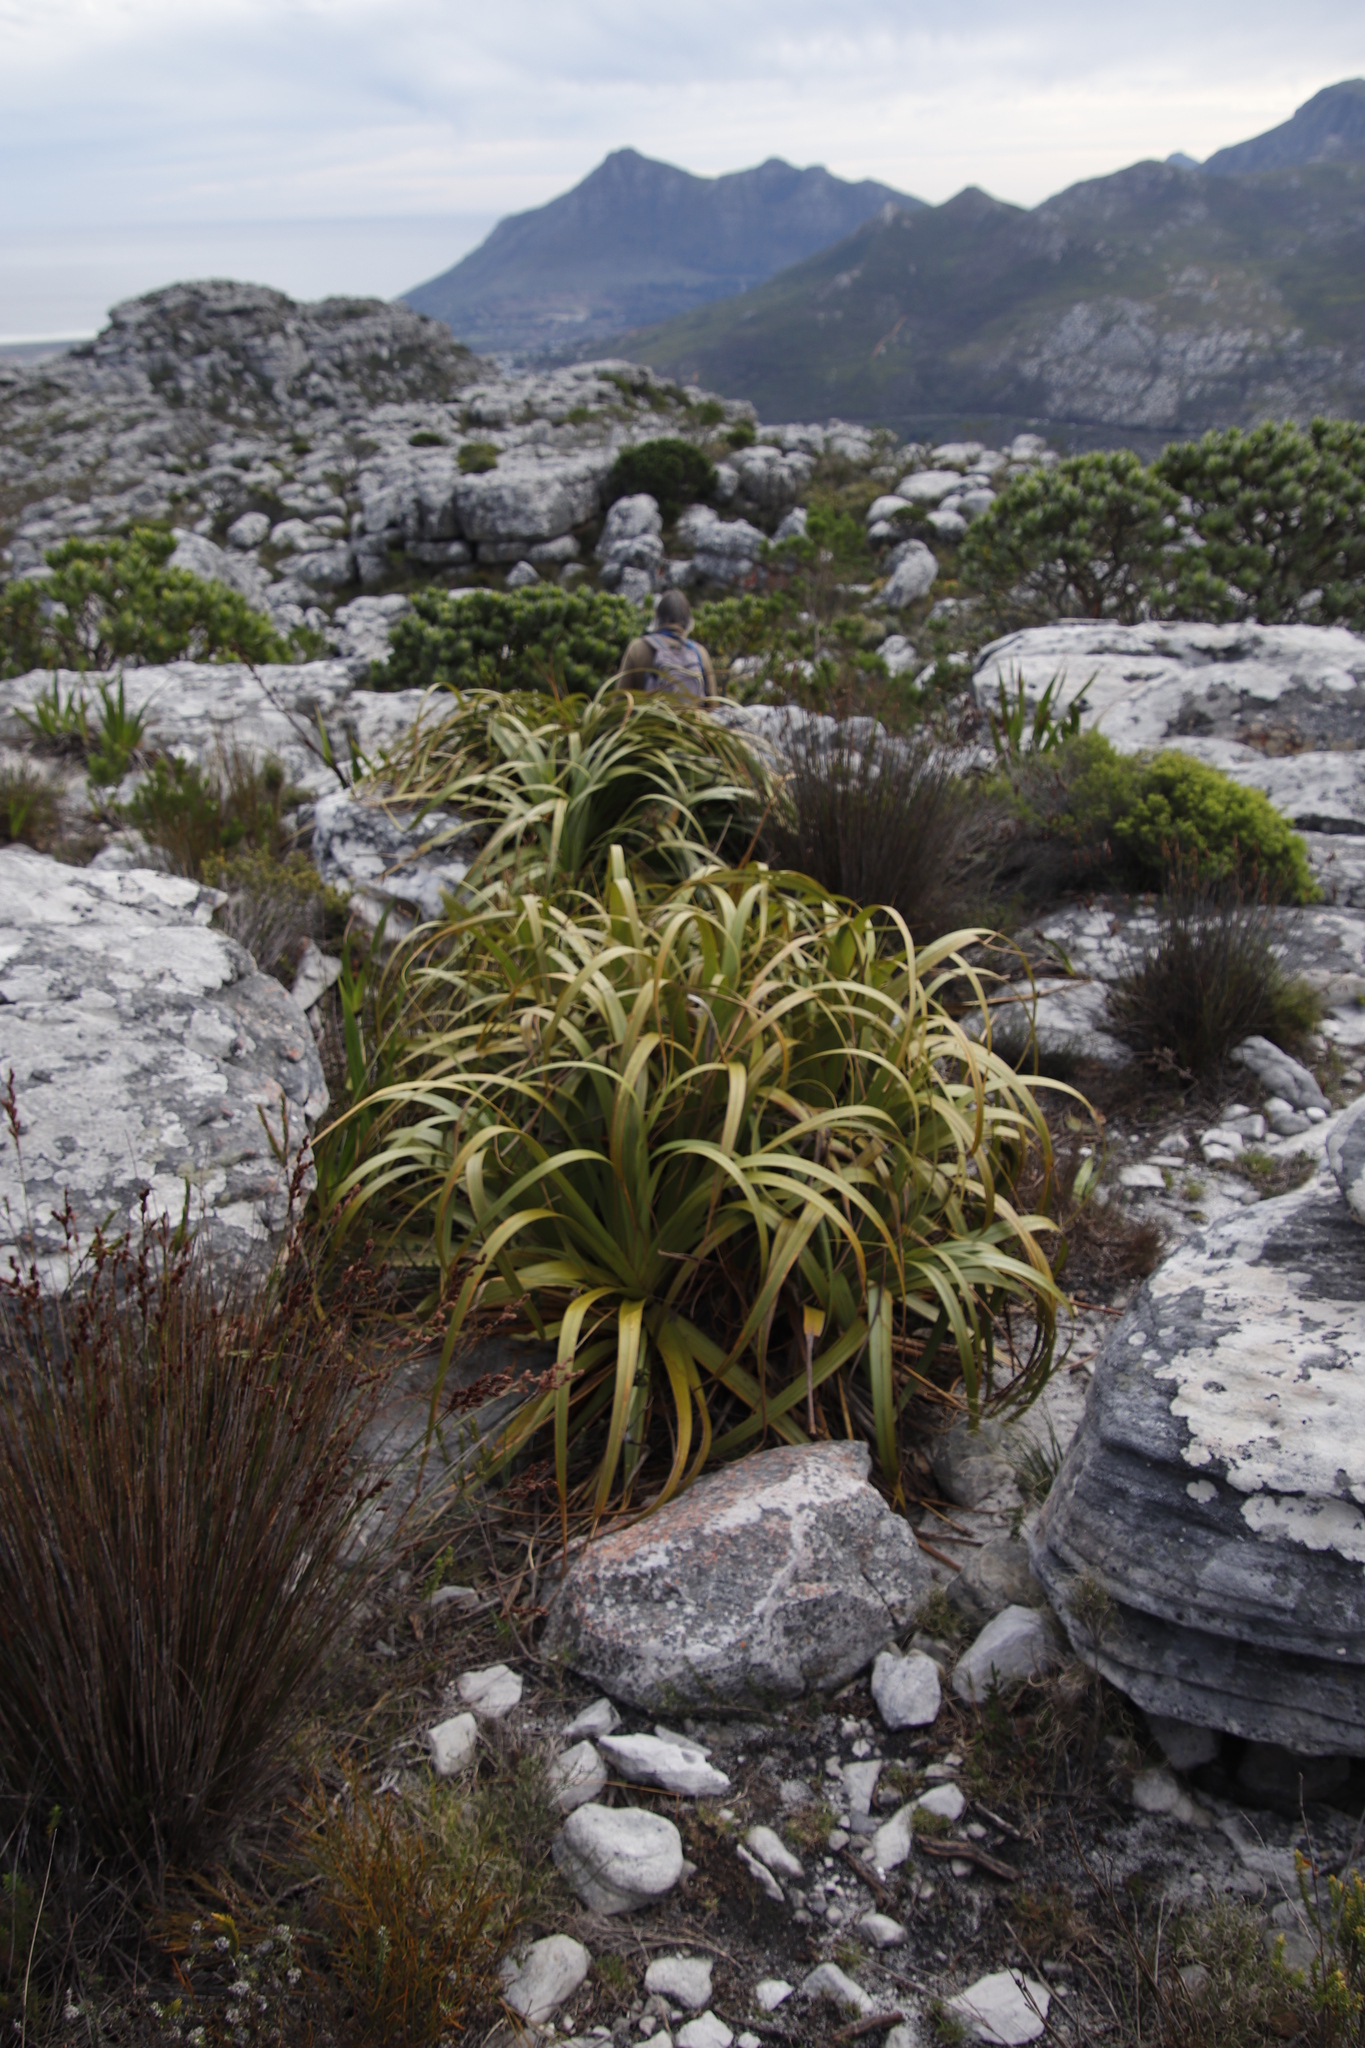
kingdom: Plantae
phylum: Tracheophyta
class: Liliopsida
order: Poales
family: Cyperaceae
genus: Tetraria
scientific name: Tetraria thermalis
